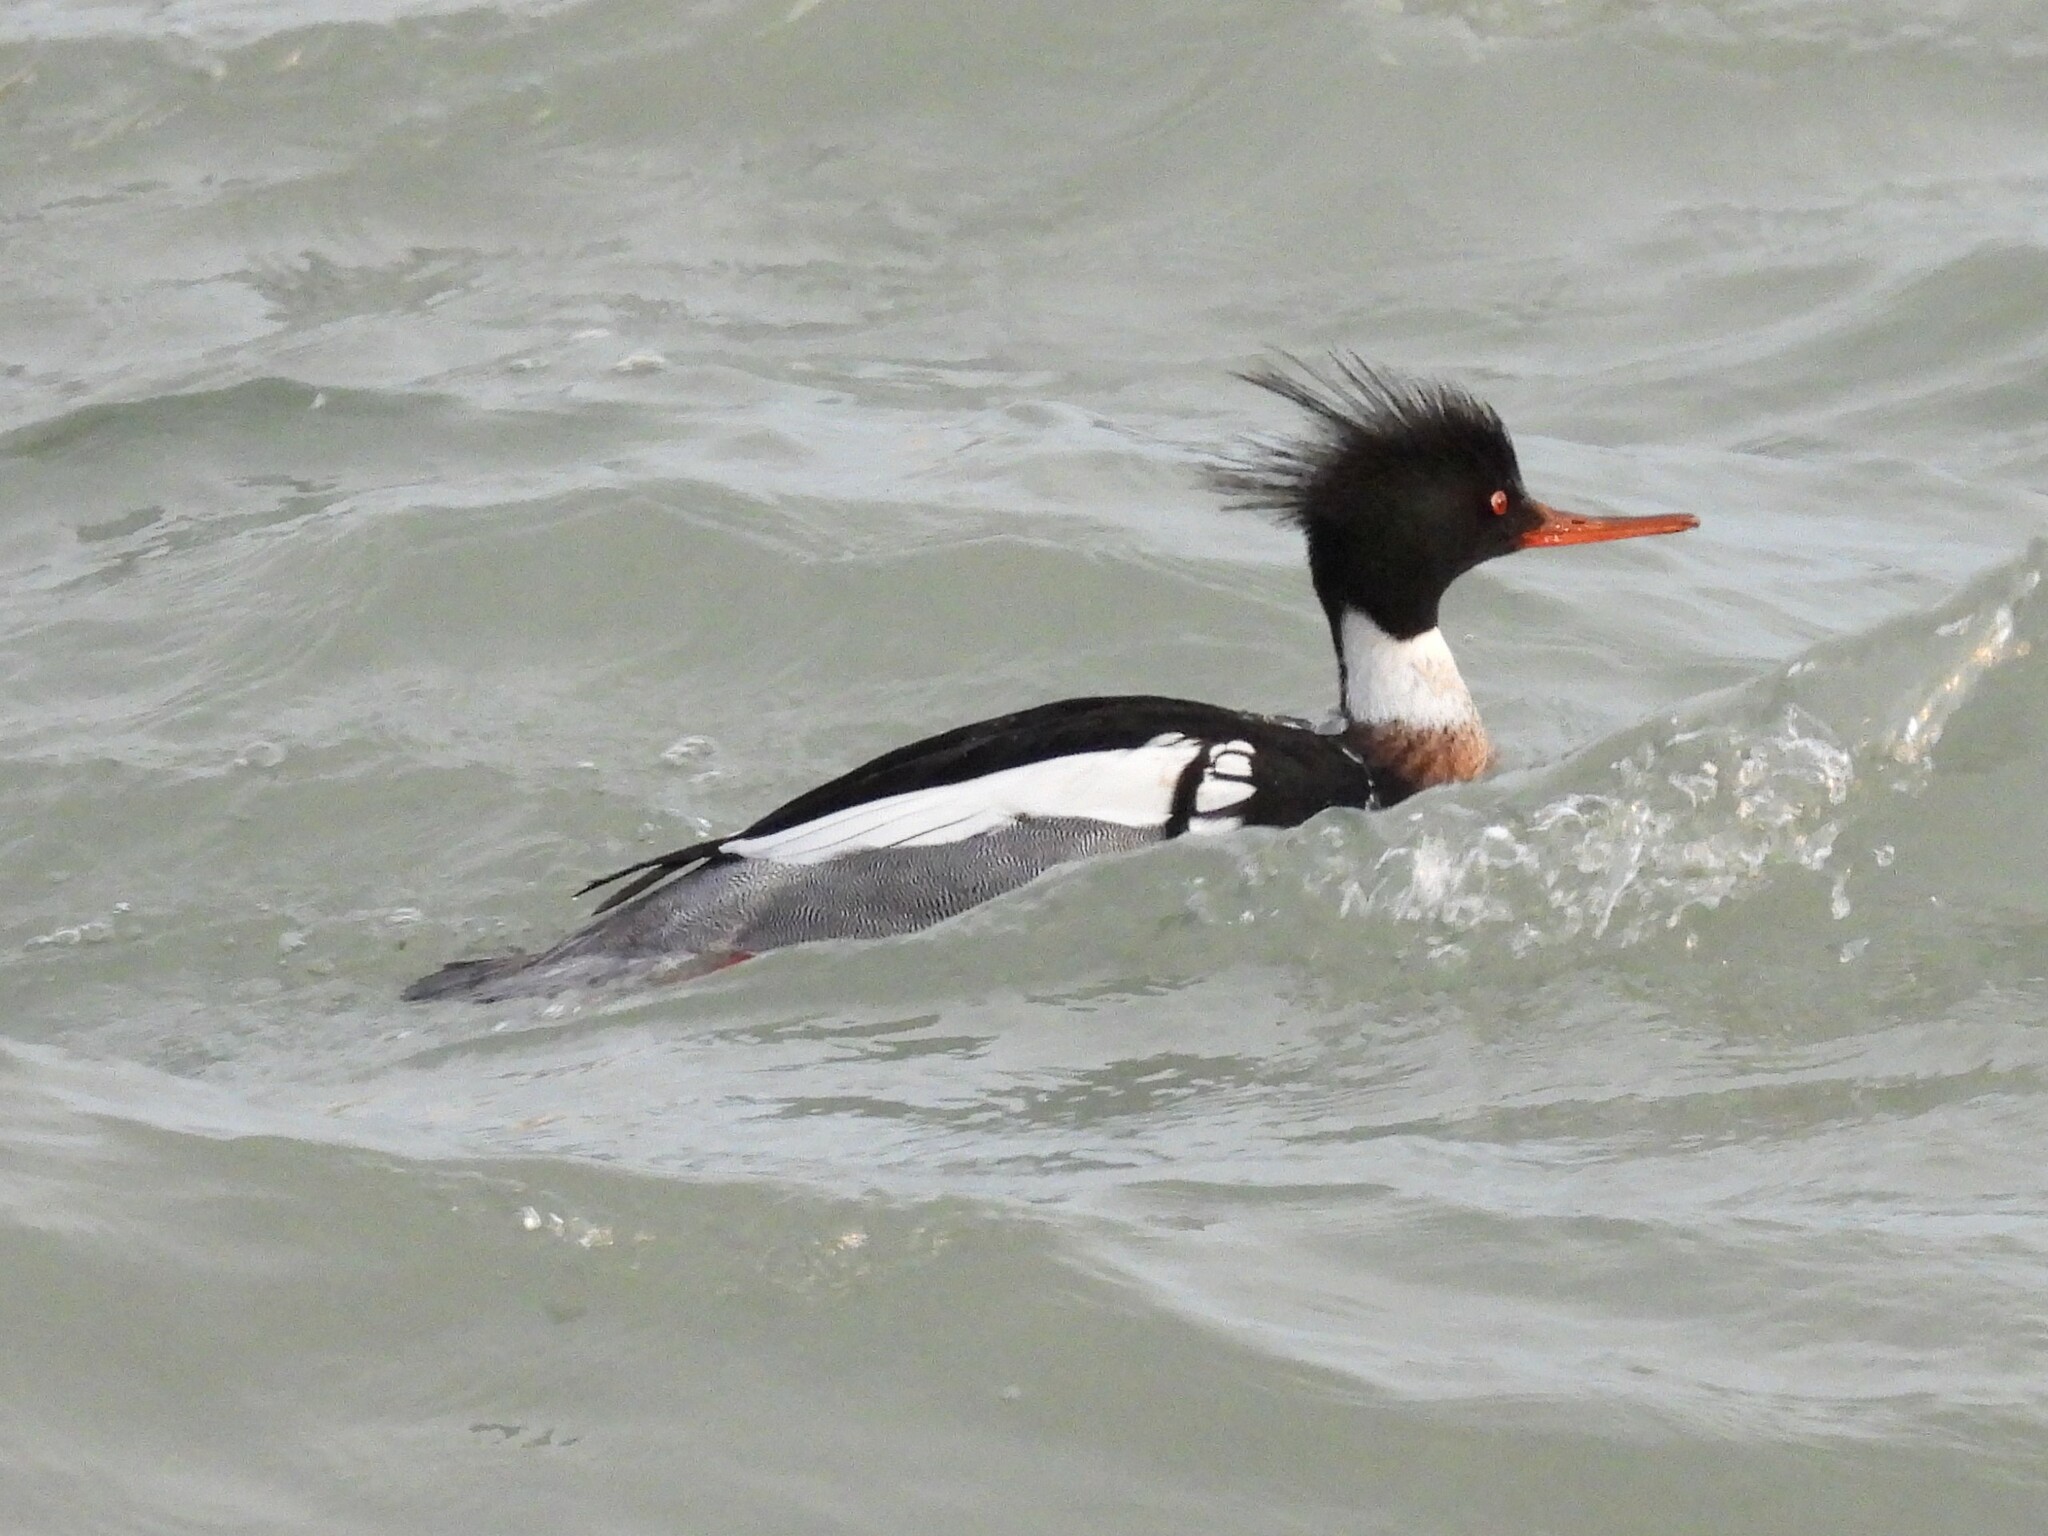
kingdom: Animalia
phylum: Chordata
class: Aves
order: Anseriformes
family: Anatidae
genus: Mergus
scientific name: Mergus serrator
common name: Red-breasted merganser
